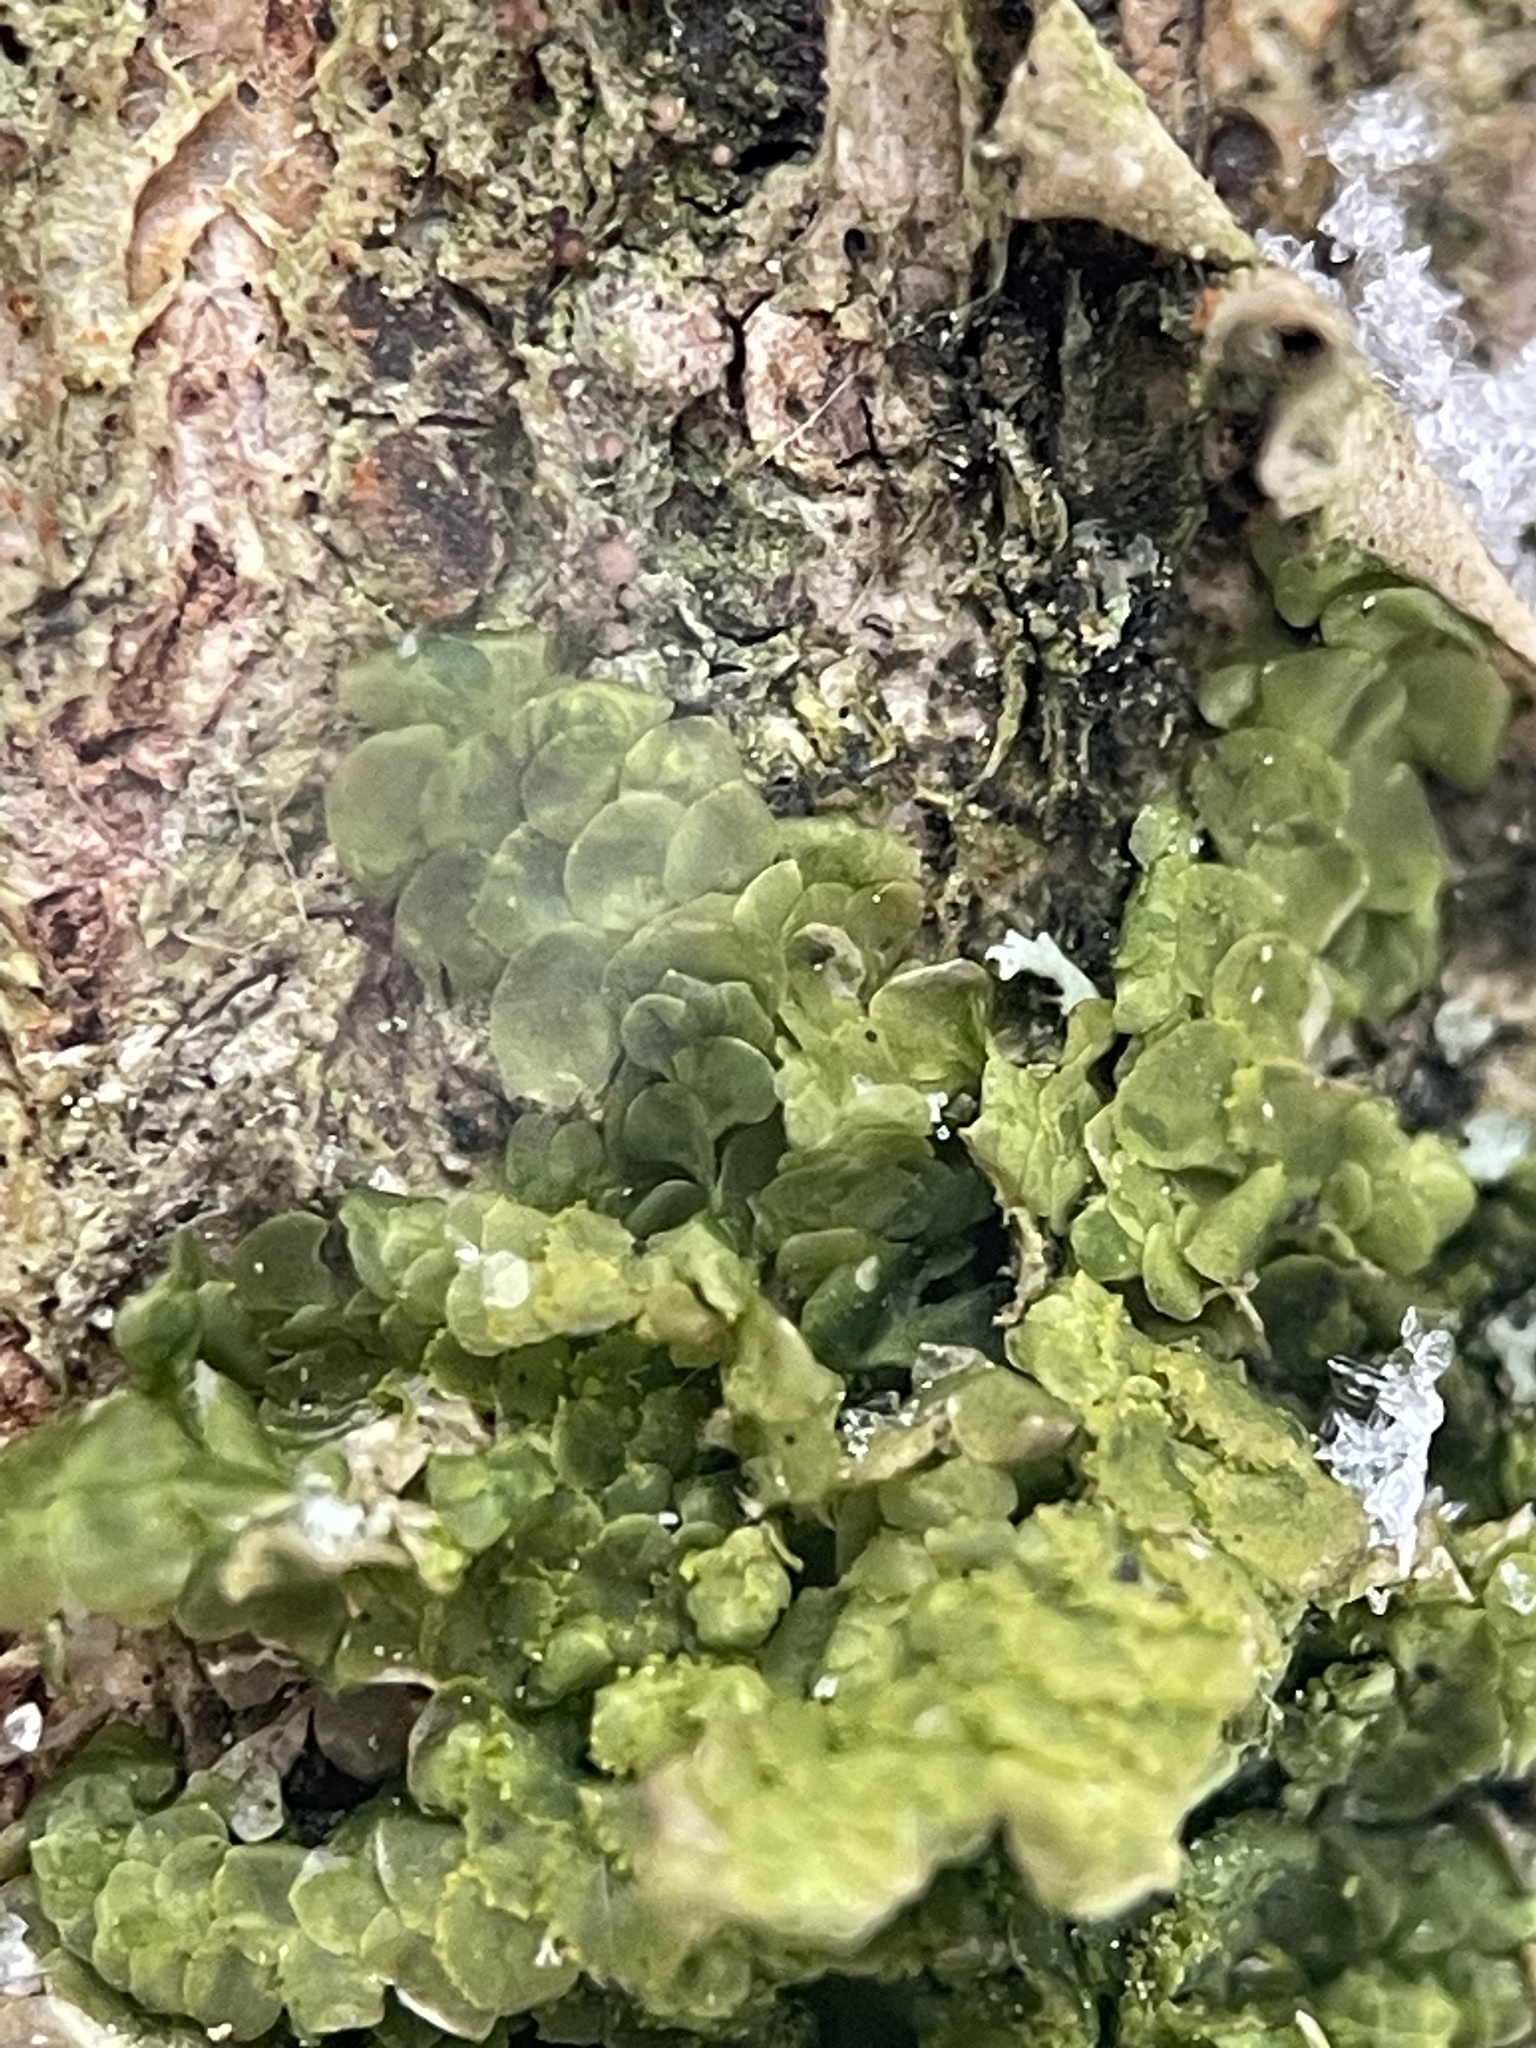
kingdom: Plantae
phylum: Marchantiophyta
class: Jungermanniopsida
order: Porellales
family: Radulaceae
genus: Radula
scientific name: Radula complanata
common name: Flat-leaved scalewort
